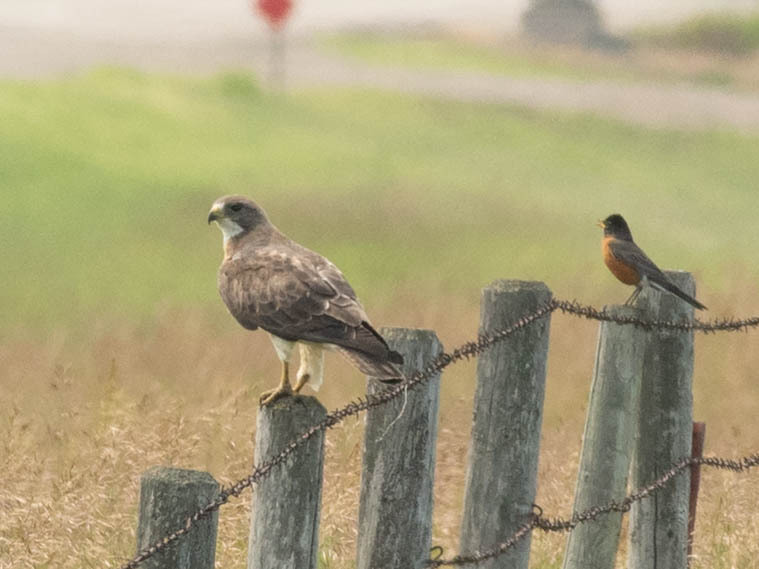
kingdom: Animalia
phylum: Chordata
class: Aves
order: Accipitriformes
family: Accipitridae
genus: Buteo
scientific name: Buteo swainsoni
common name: Swainson's hawk
